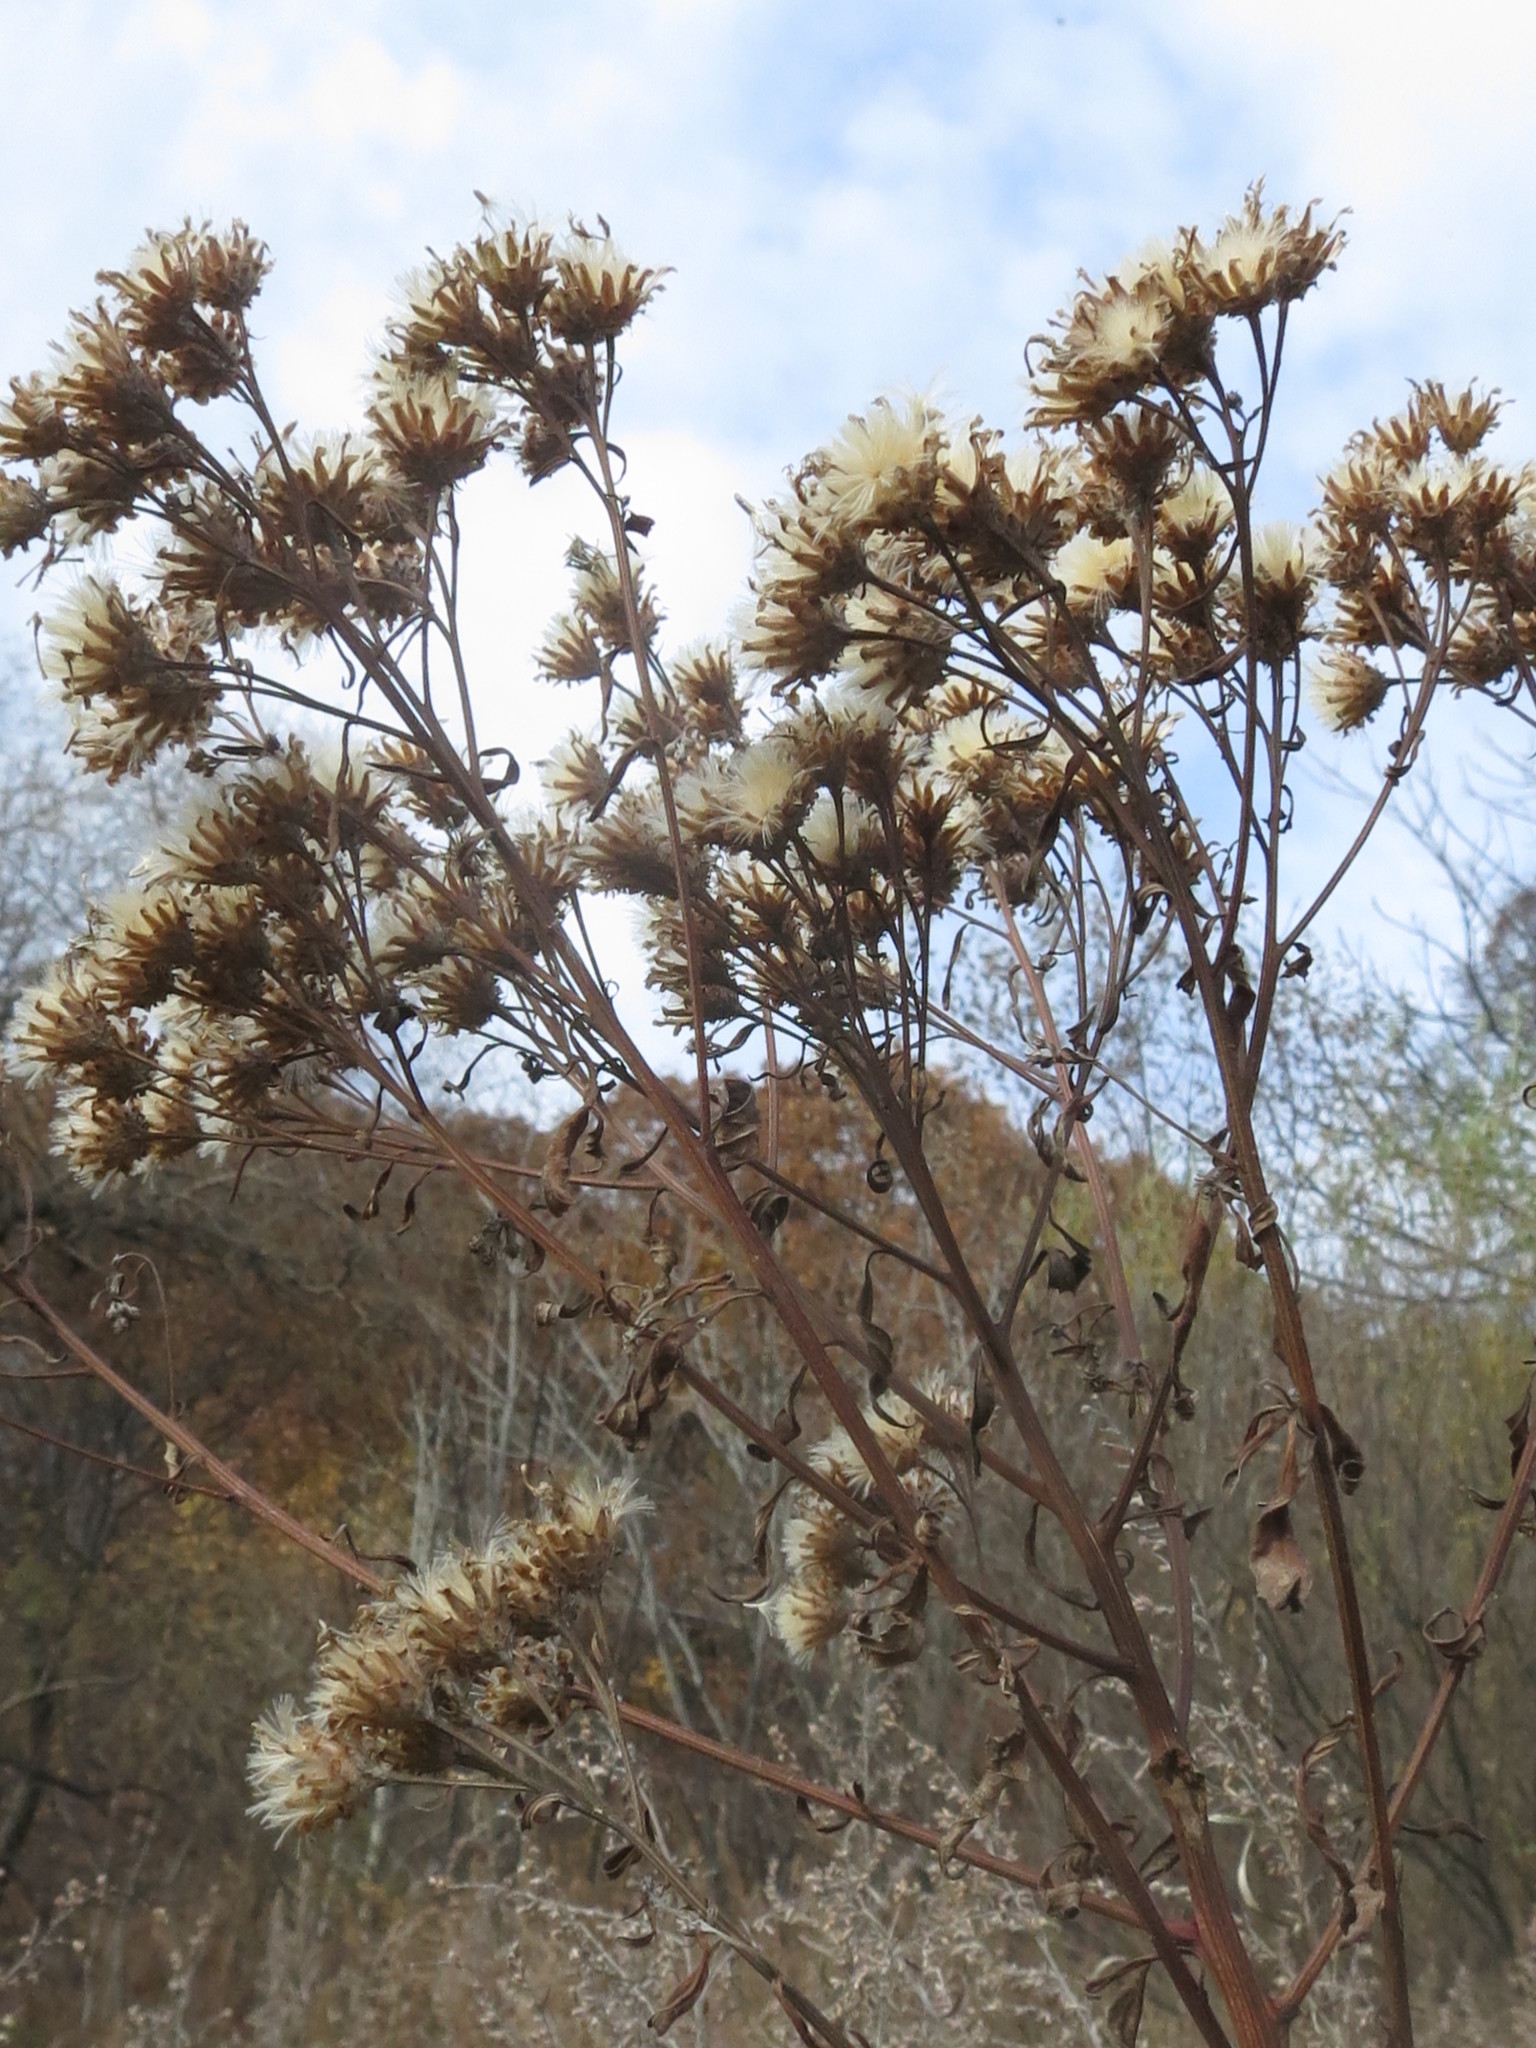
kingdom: Plantae
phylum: Tracheophyta
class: Magnoliopsida
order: Asterales
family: Asteraceae
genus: Saussurea
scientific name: Saussurea pulchella
